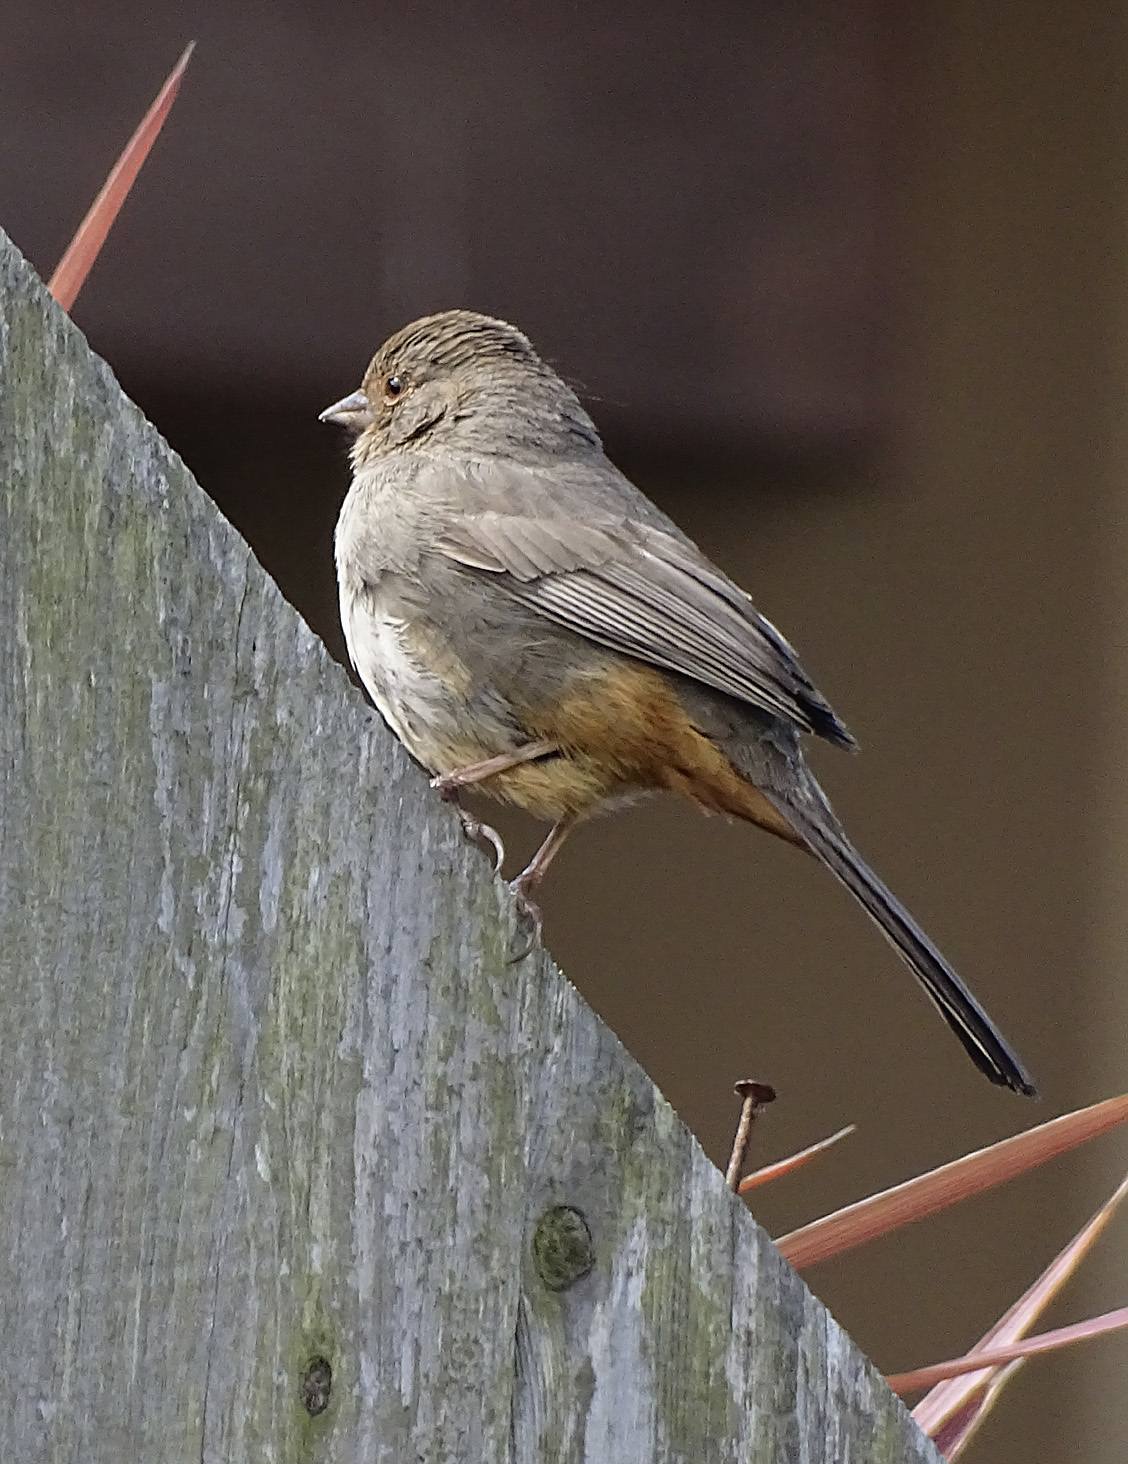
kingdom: Animalia
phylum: Chordata
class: Aves
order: Passeriformes
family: Passerellidae
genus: Melozone
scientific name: Melozone crissalis
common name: California towhee
